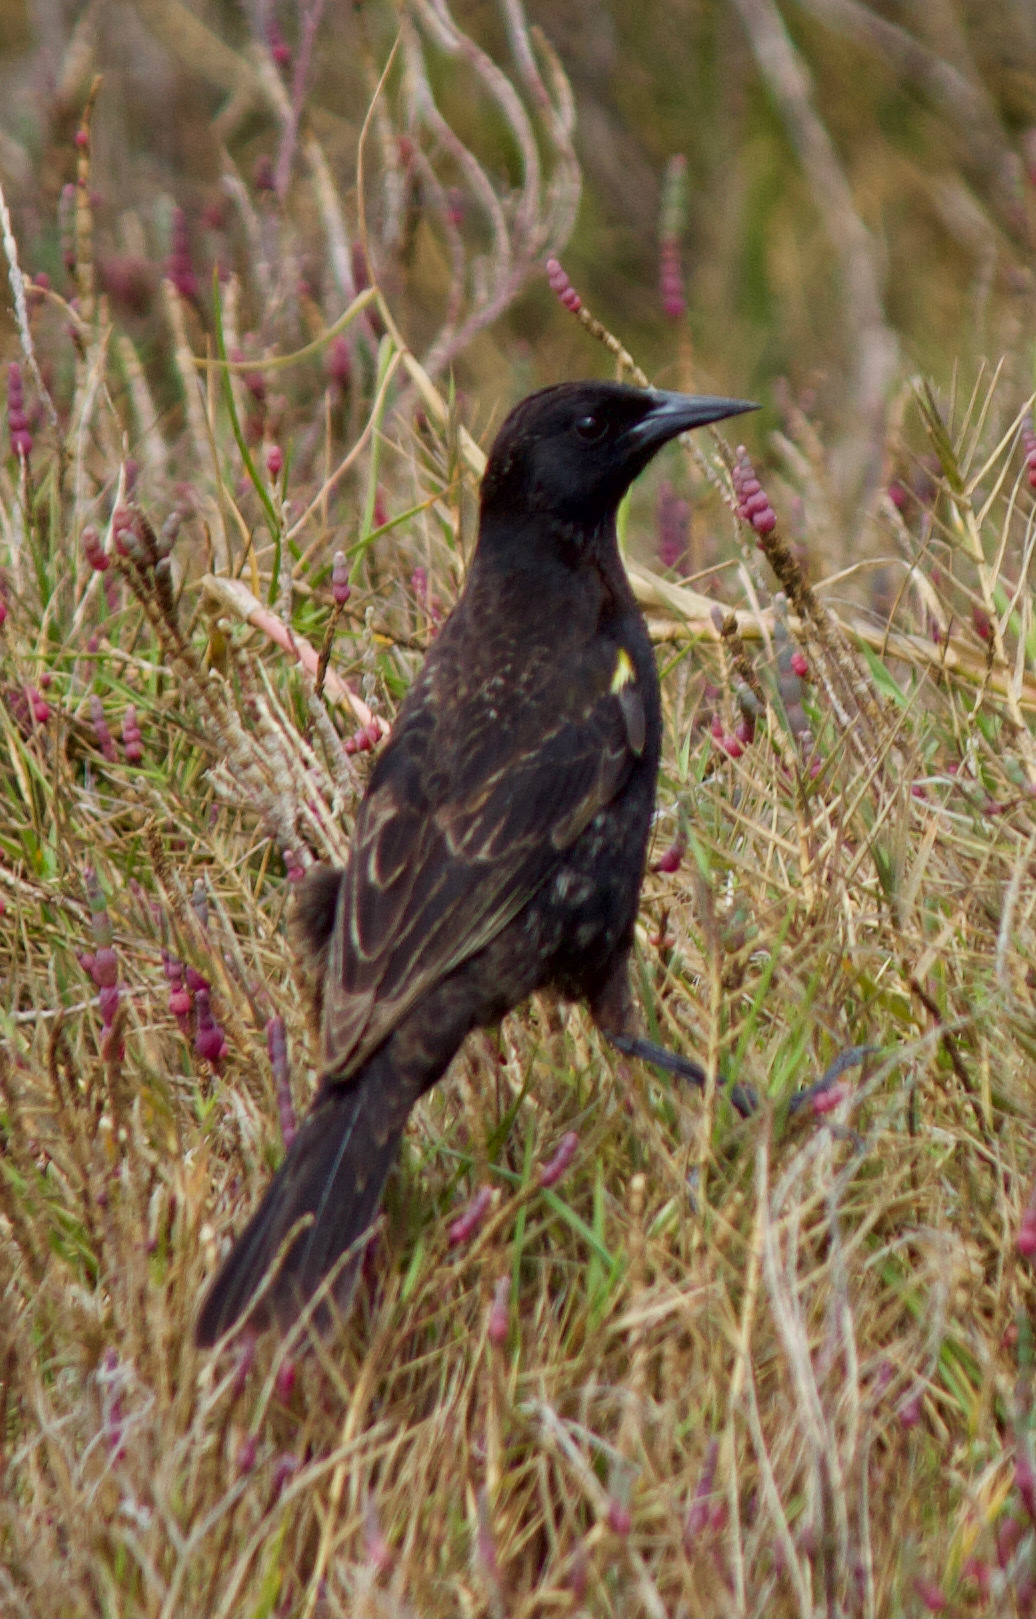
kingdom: Animalia
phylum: Chordata
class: Aves
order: Passeriformes
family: Icteridae
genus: Agelasticus
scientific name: Agelasticus thilius
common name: Yellow-winged blackbird
